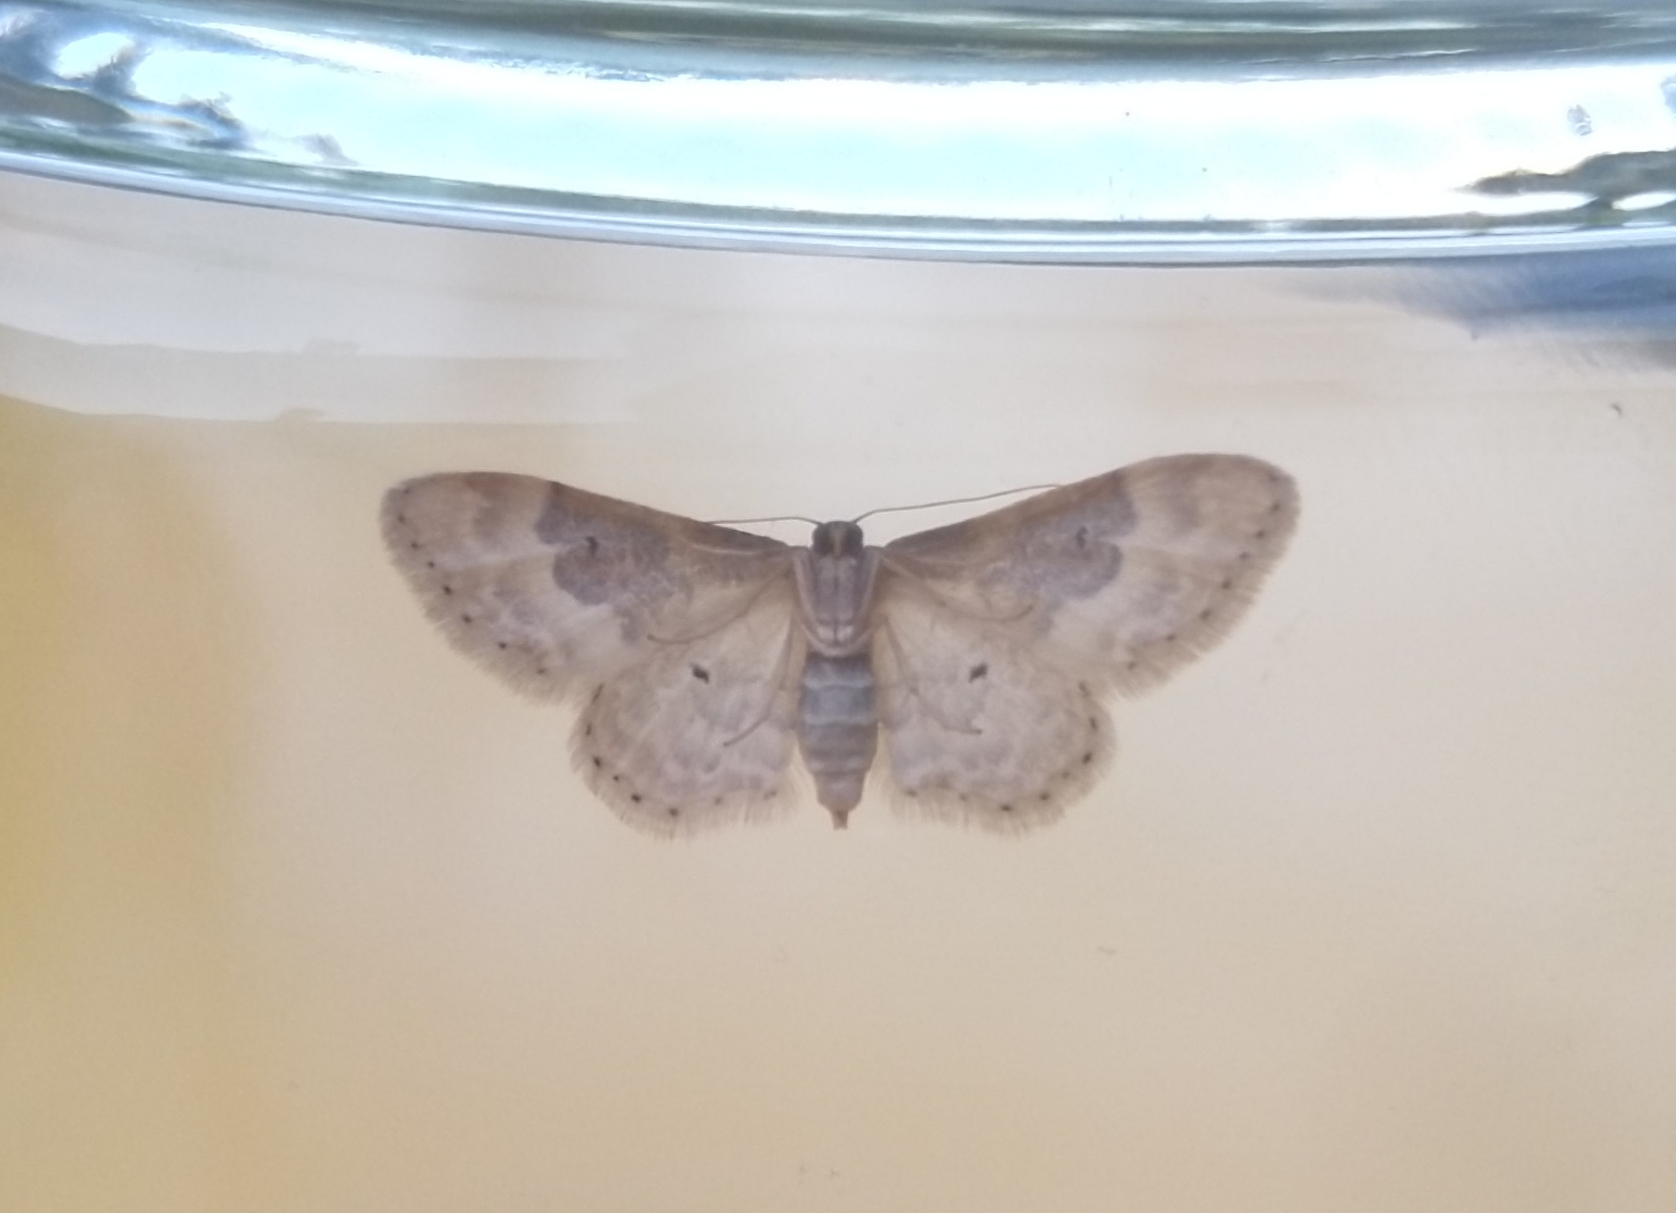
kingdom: Animalia
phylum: Arthropoda
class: Insecta
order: Lepidoptera
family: Geometridae
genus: Idaea
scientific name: Idaea rusticata
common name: Least carpet
